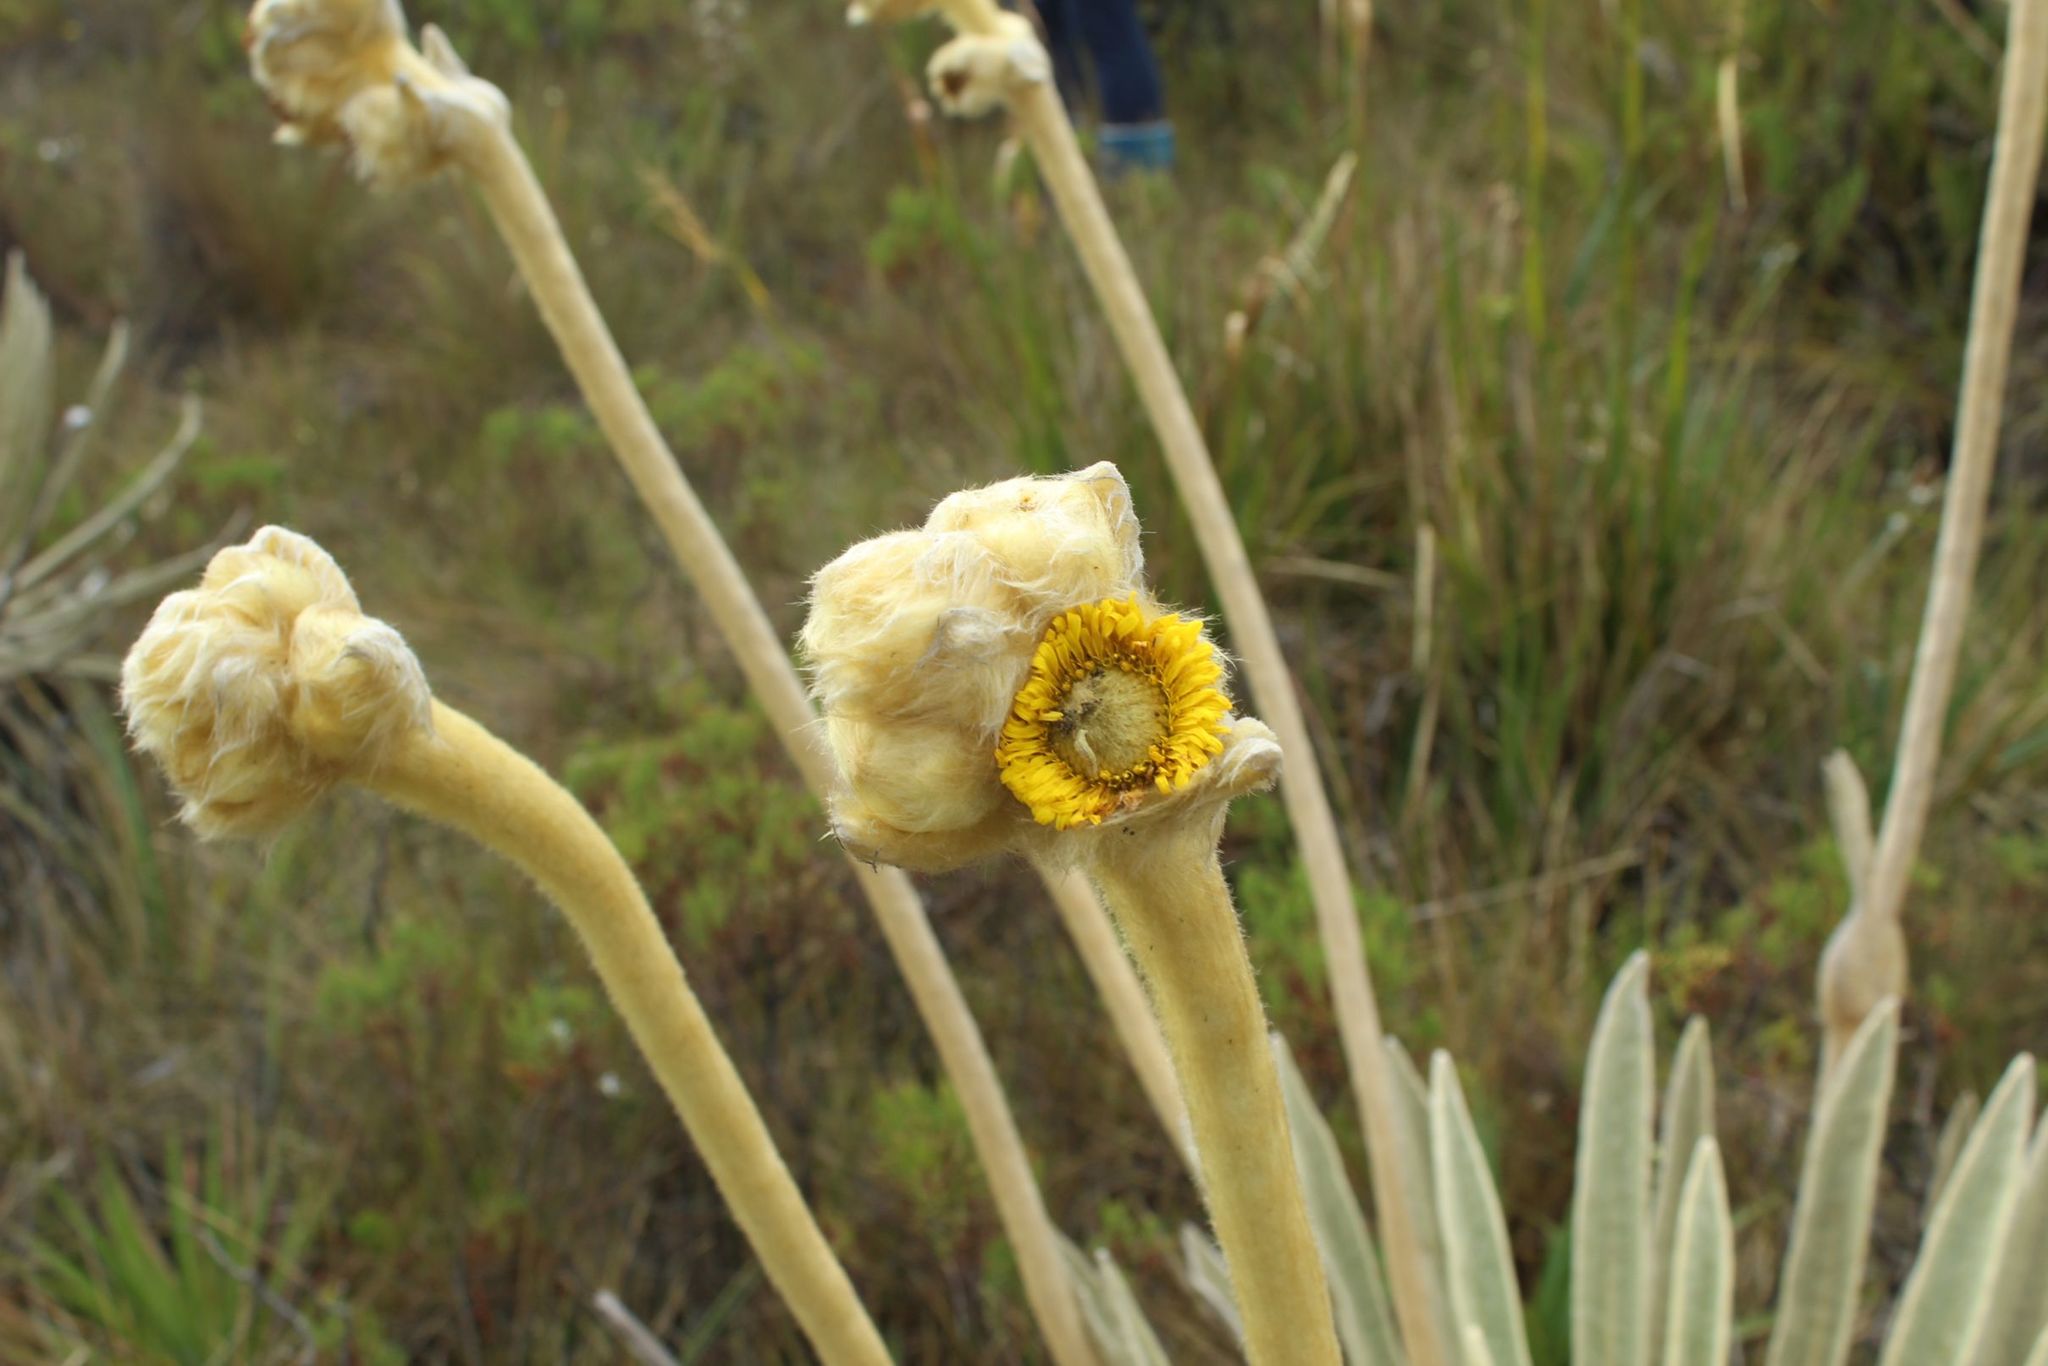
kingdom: Plantae
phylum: Tracheophyta
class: Magnoliopsida
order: Asterales
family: Asteraceae
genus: Espeletia
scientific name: Espeletia congestiflora
